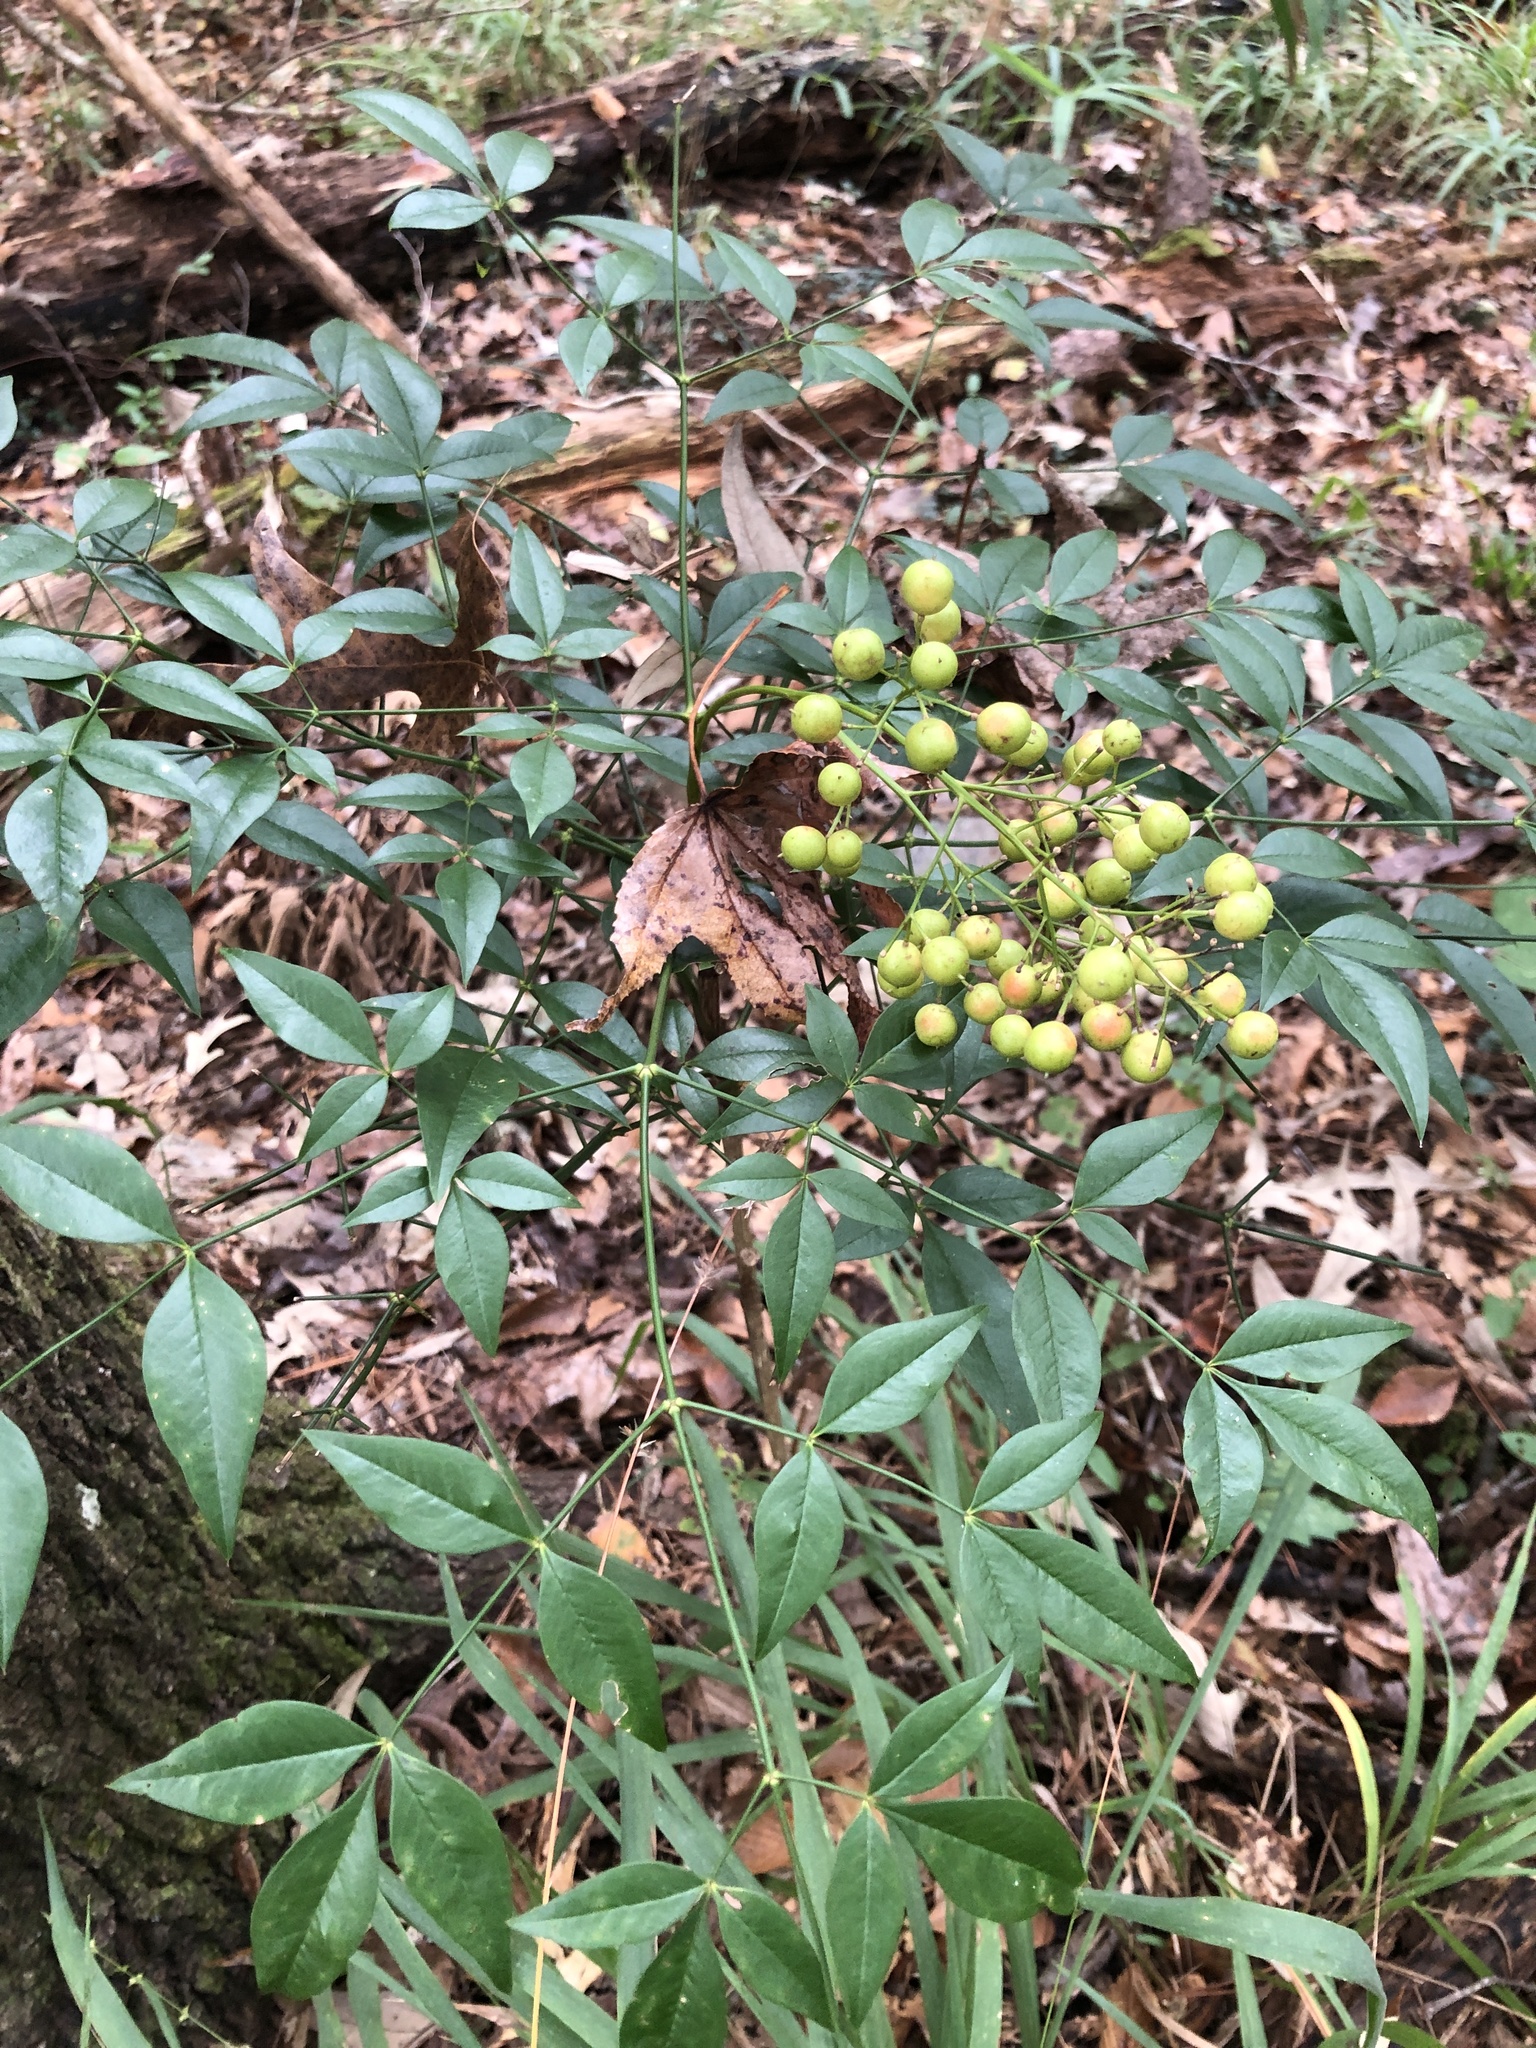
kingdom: Plantae
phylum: Tracheophyta
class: Magnoliopsida
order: Ranunculales
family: Berberidaceae
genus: Nandina
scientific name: Nandina domestica
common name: Sacred bamboo
